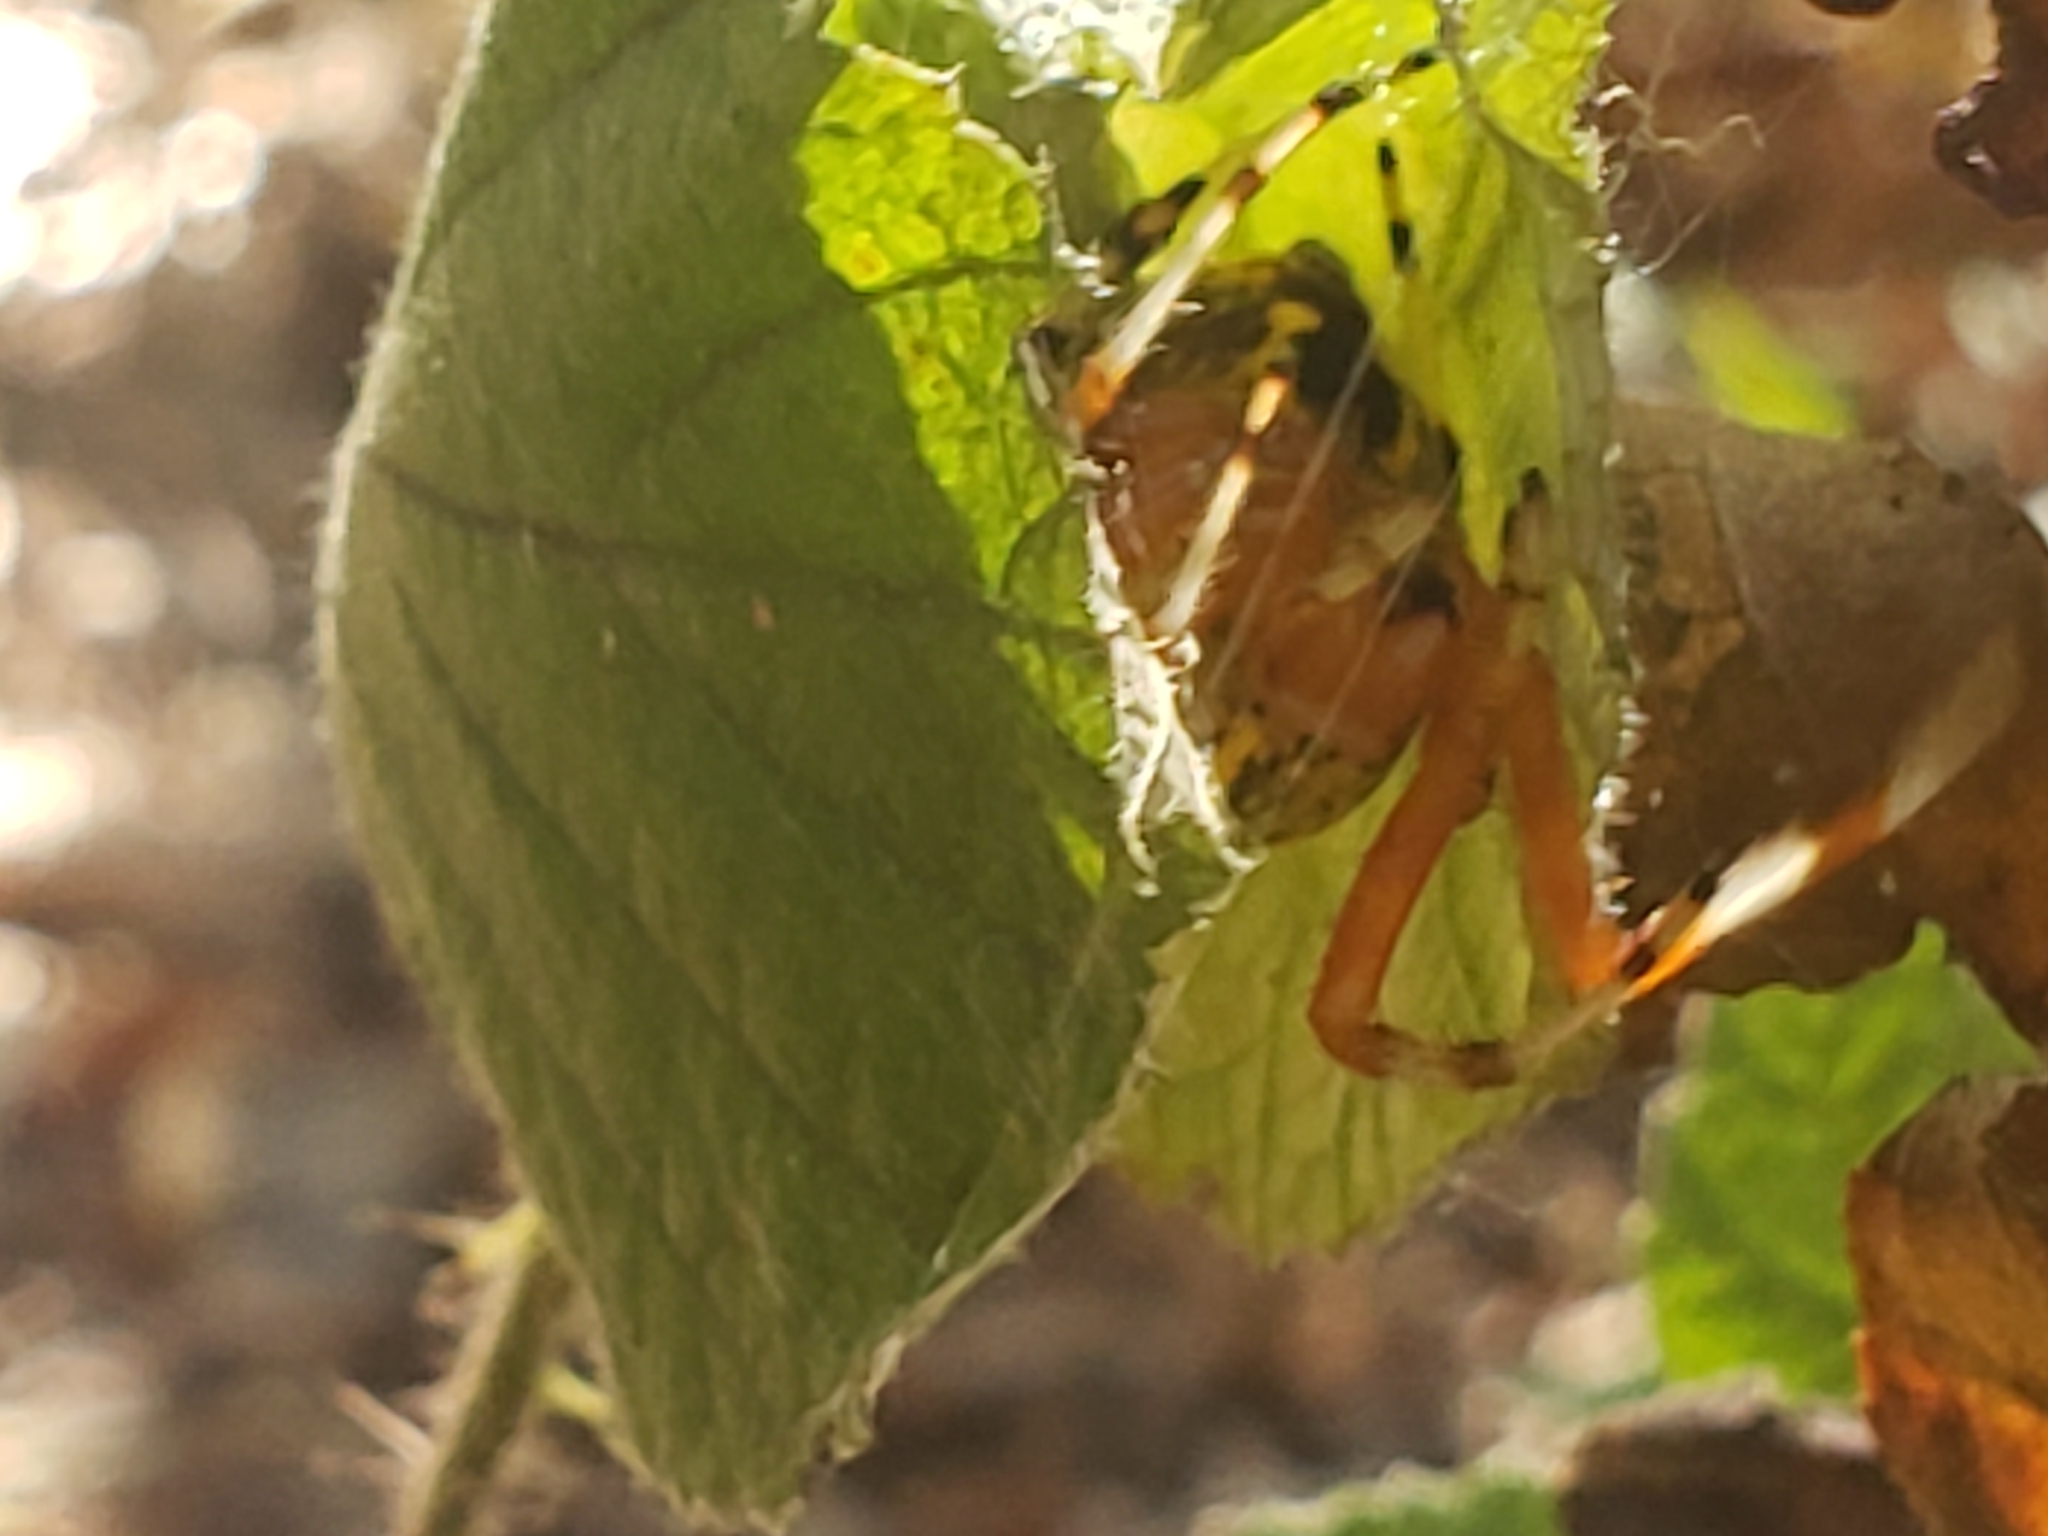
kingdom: Animalia
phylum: Arthropoda
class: Arachnida
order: Araneae
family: Araneidae
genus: Araneus
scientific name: Araneus marmoreus
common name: Marbled orbweaver
